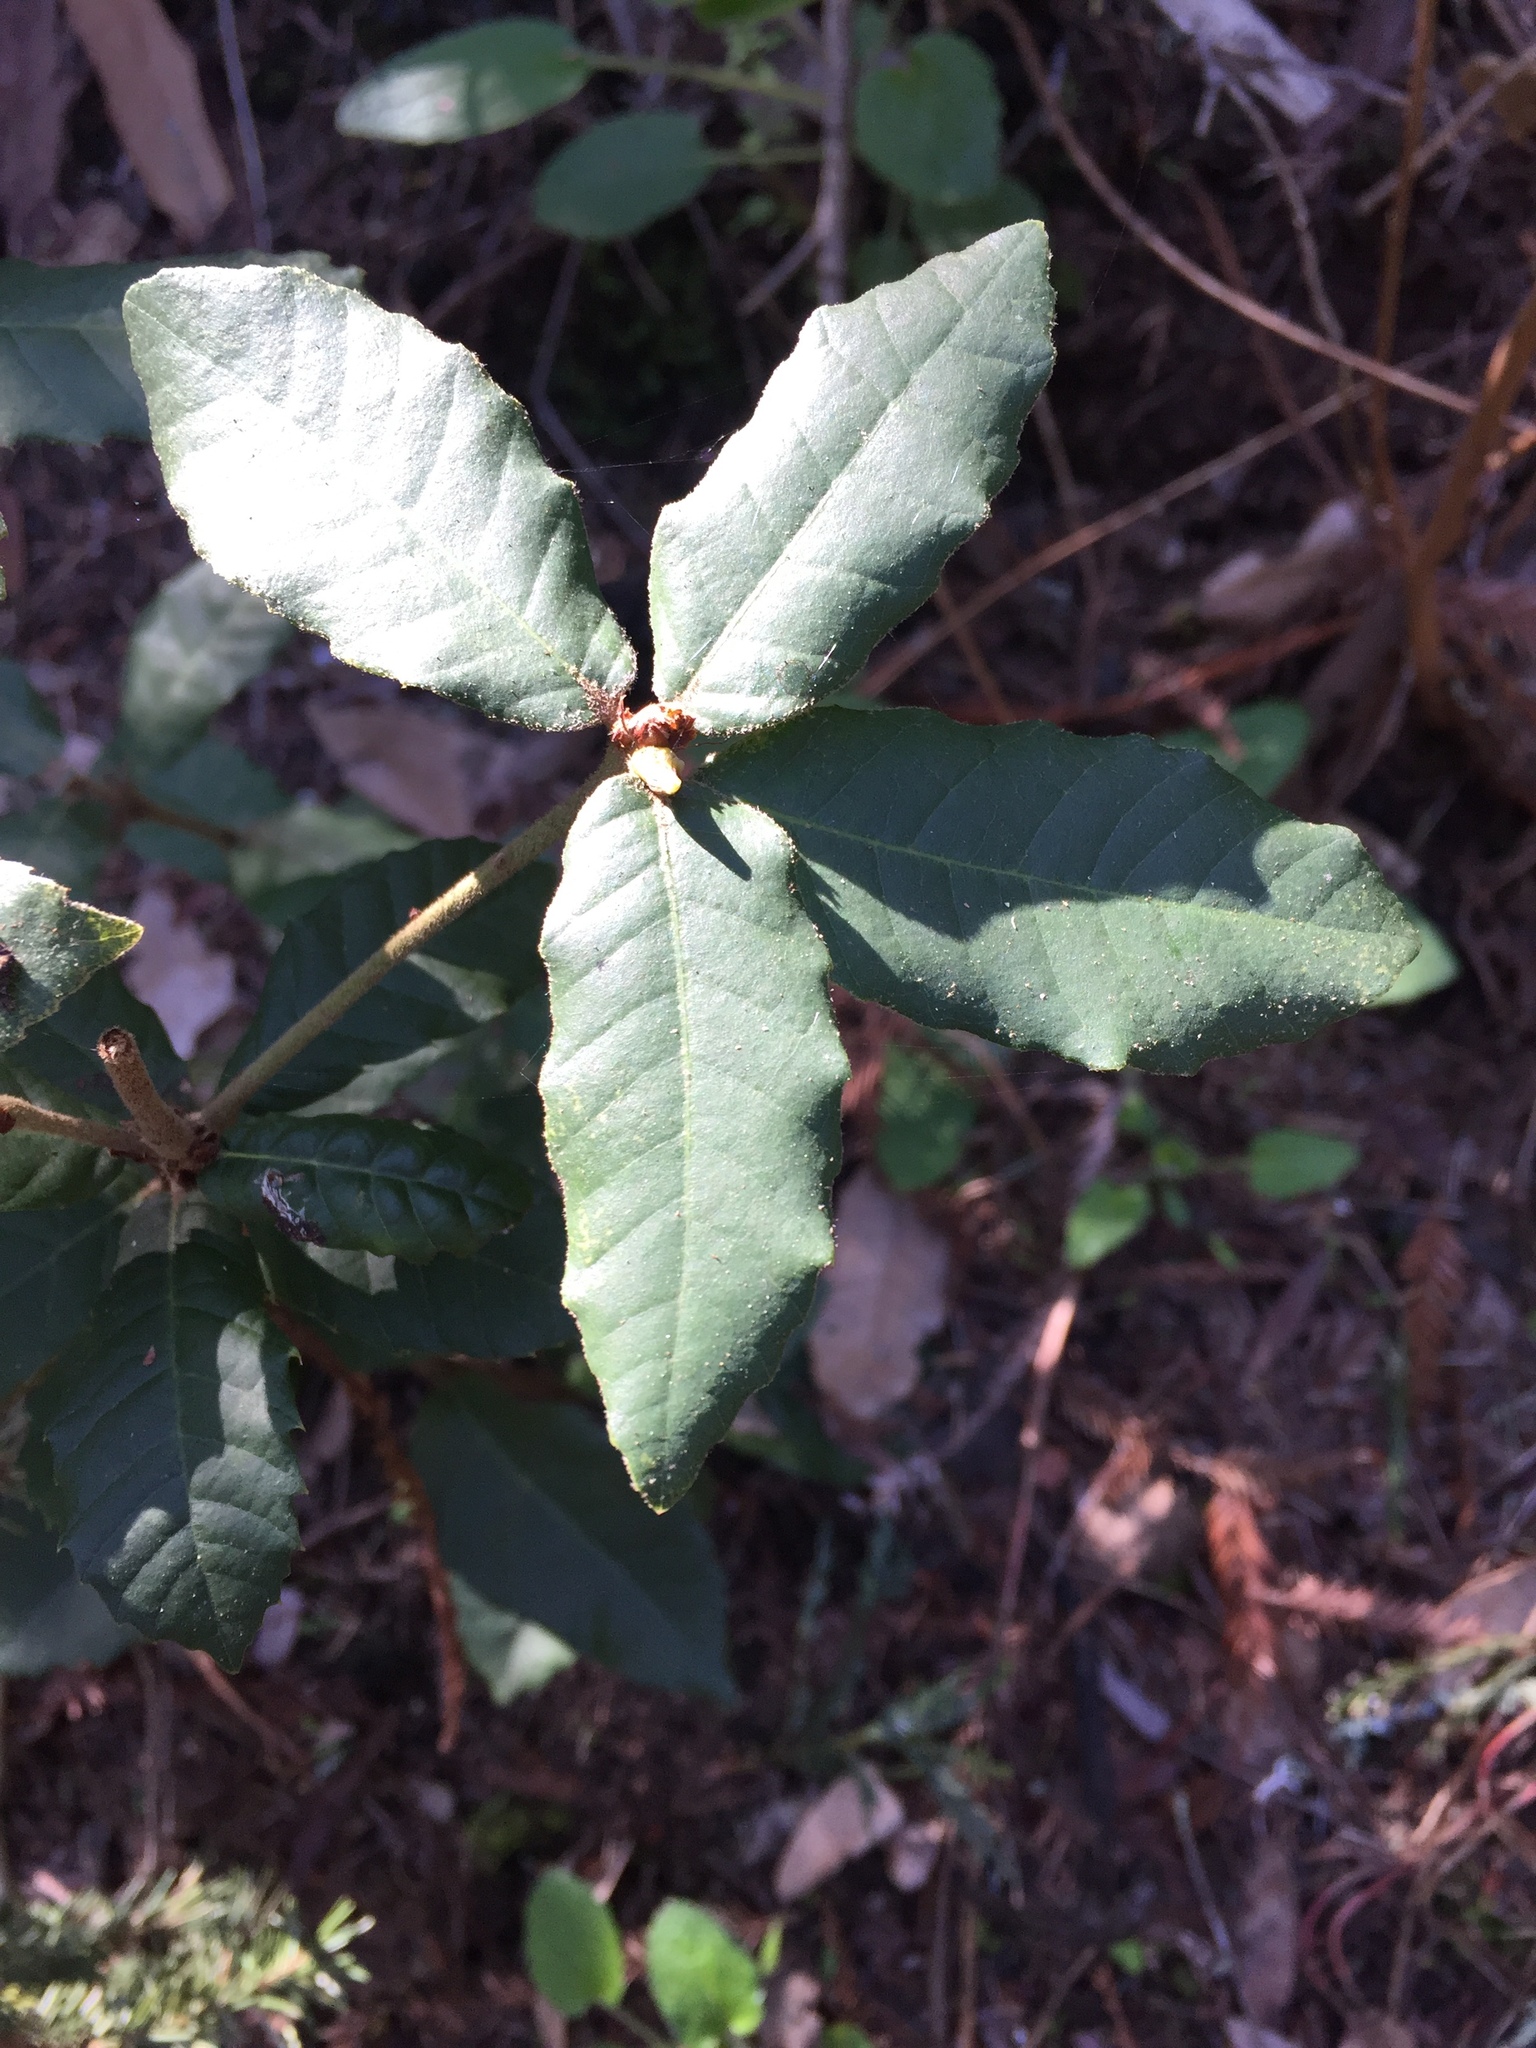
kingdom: Plantae
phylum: Tracheophyta
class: Magnoliopsida
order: Fagales
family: Fagaceae
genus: Notholithocarpus
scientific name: Notholithocarpus densiflorus
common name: Tan bark oak
